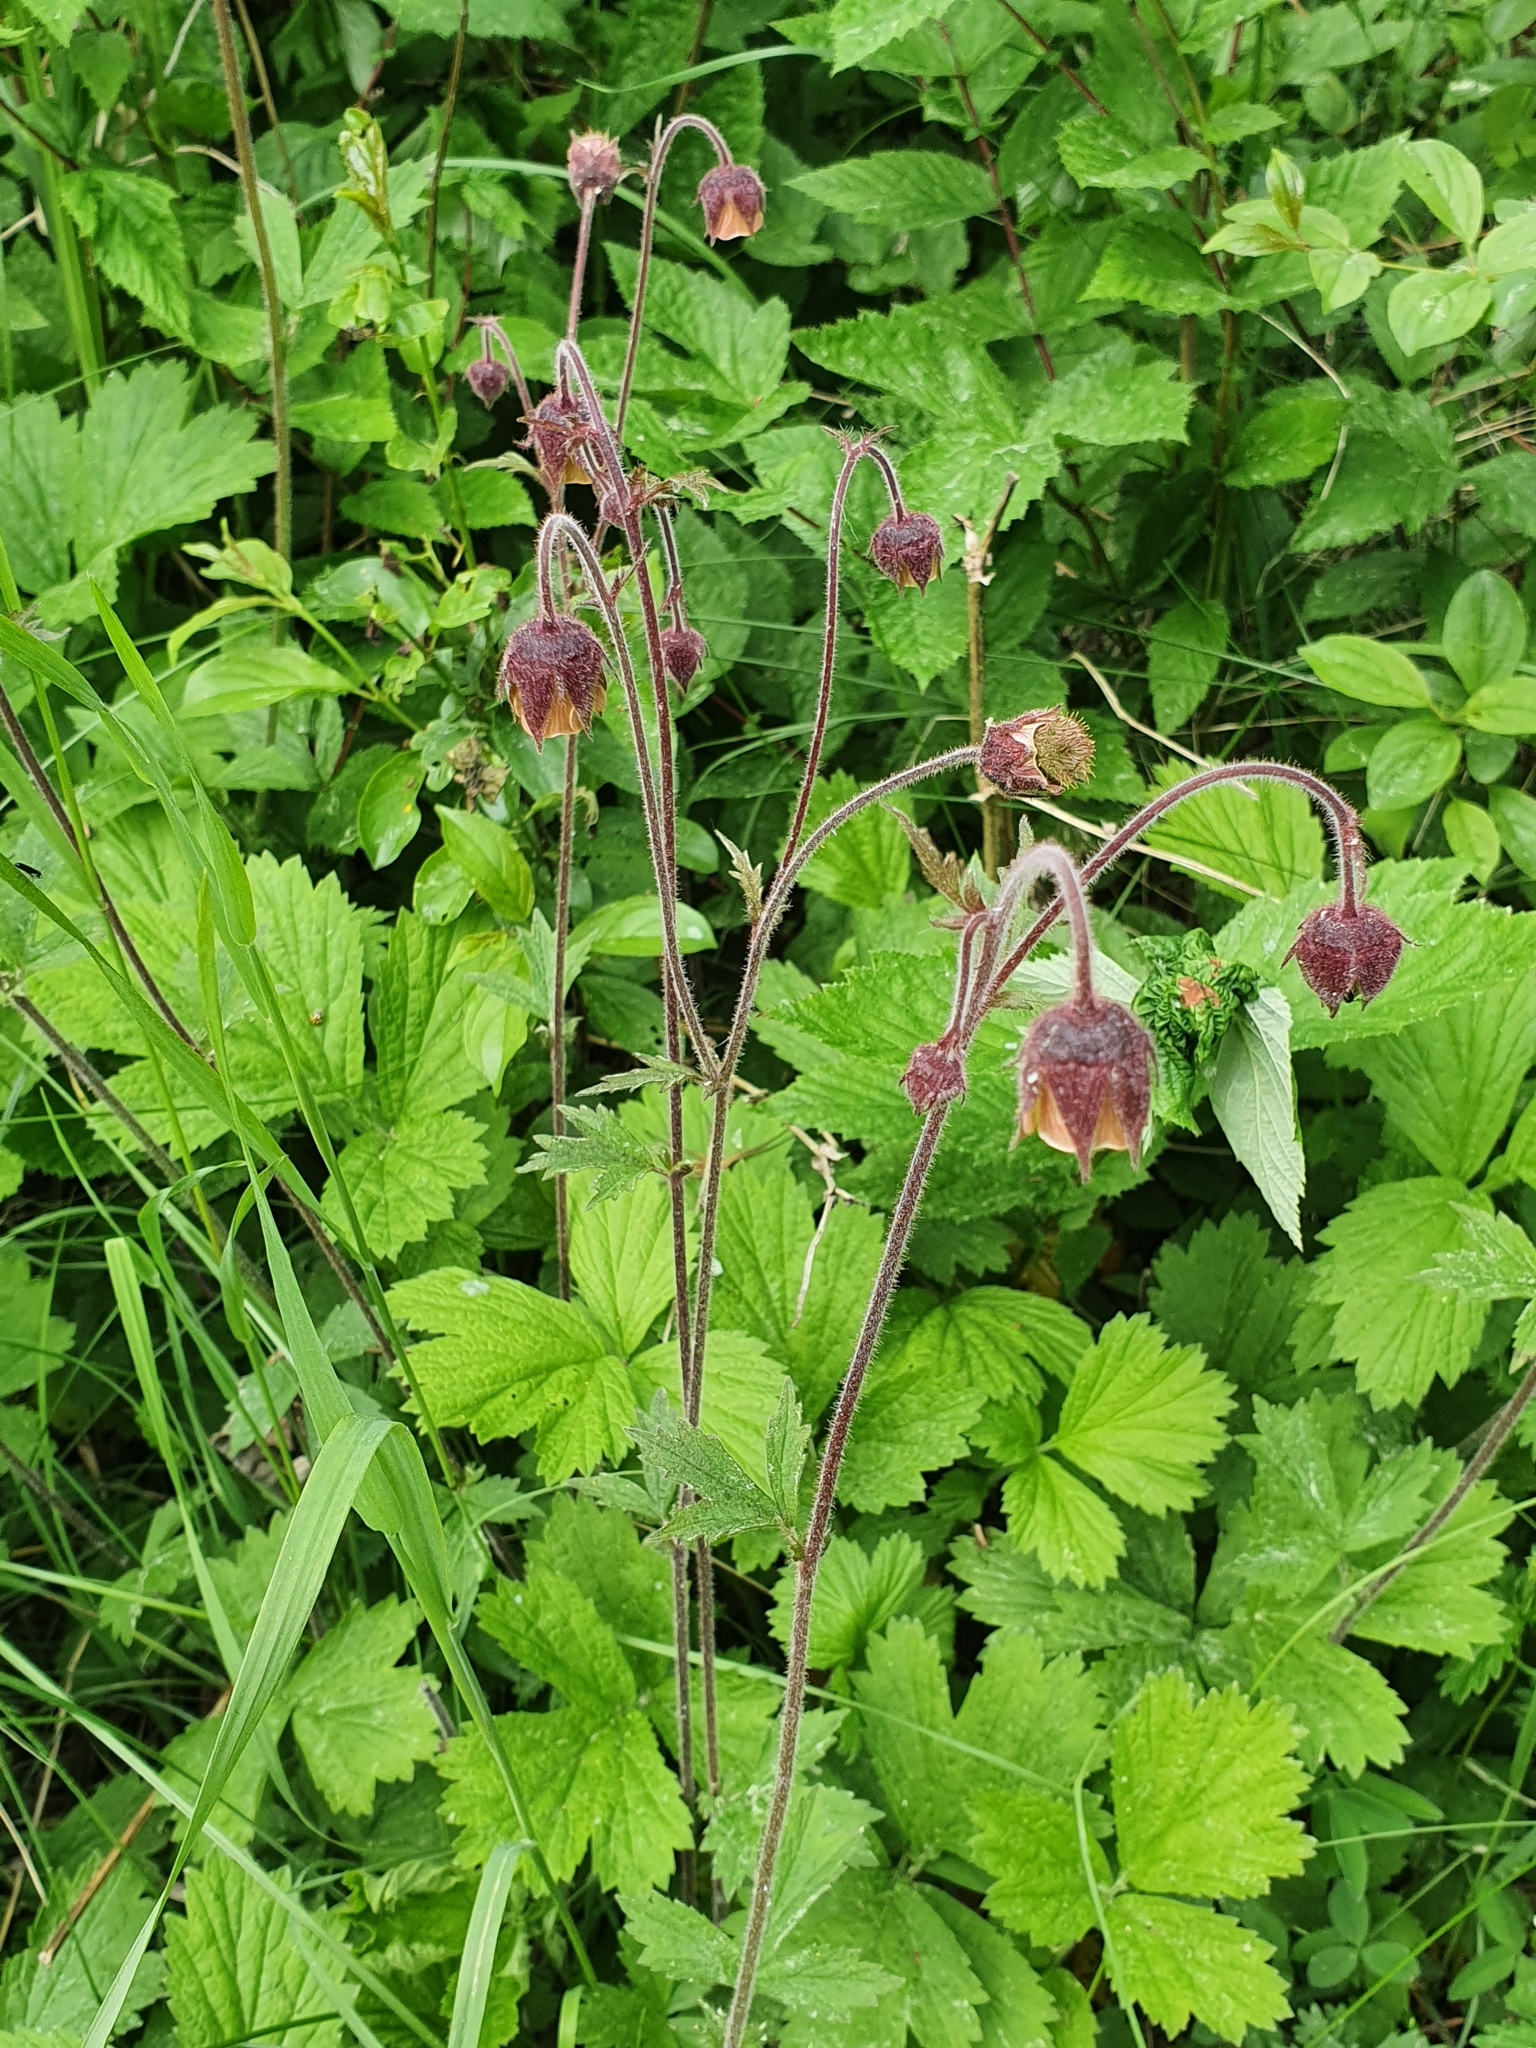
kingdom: Plantae
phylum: Tracheophyta
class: Magnoliopsida
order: Rosales
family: Rosaceae
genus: Geum
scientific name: Geum rivale
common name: Water avens
